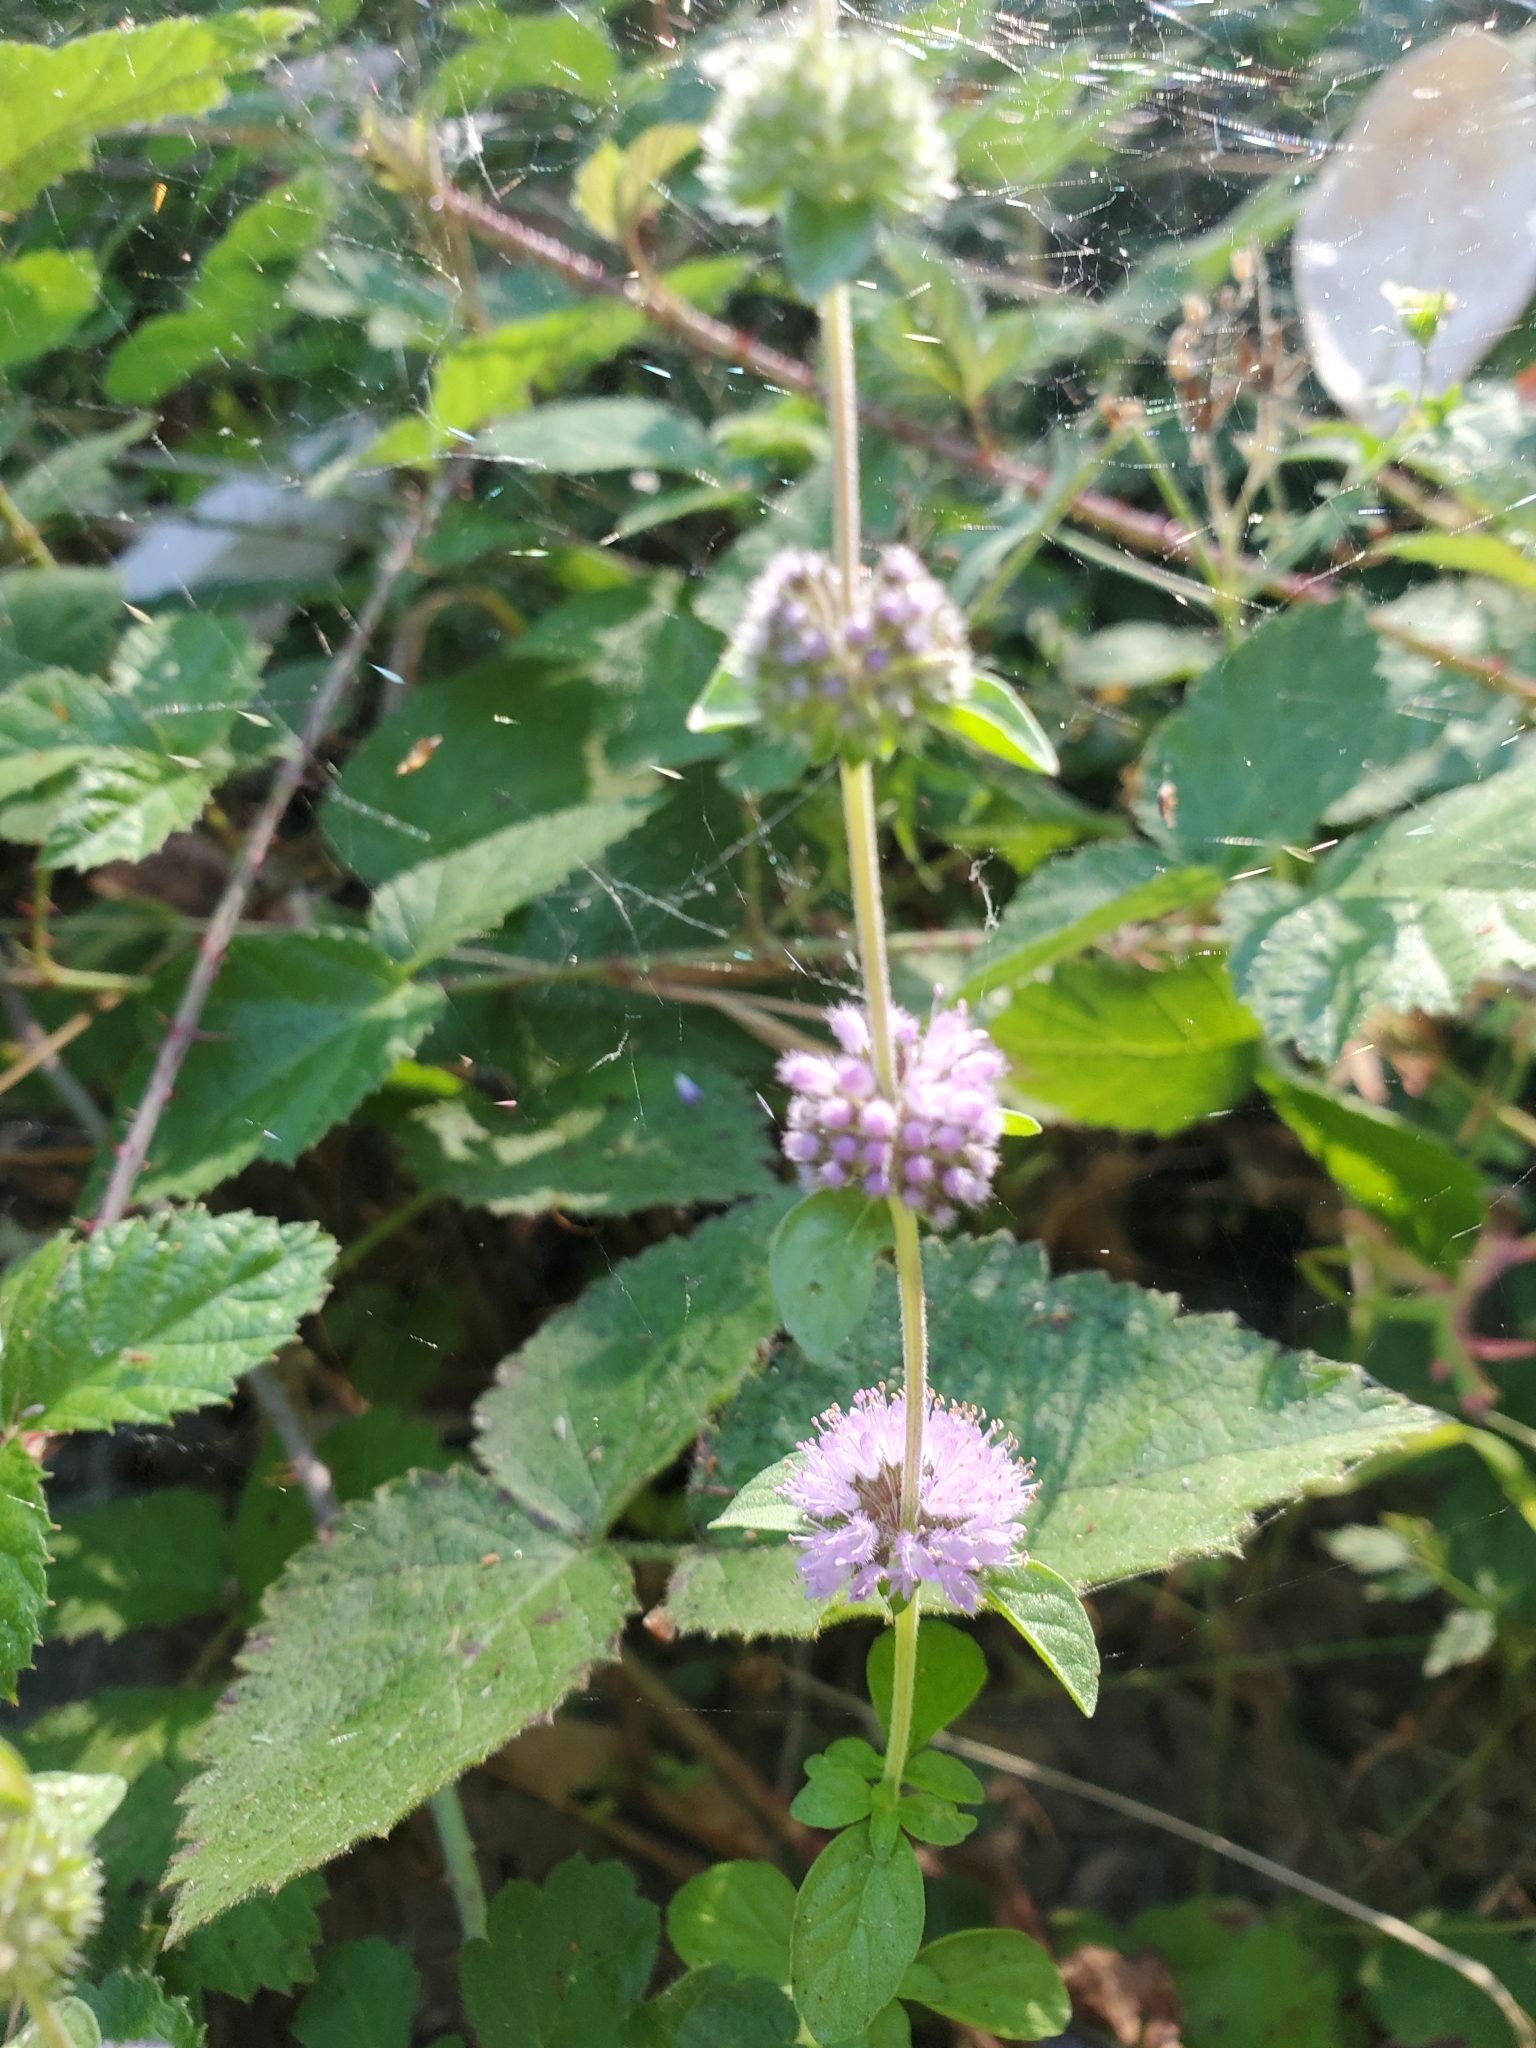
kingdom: Plantae
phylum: Tracheophyta
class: Magnoliopsida
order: Lamiales
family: Lamiaceae
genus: Mentha
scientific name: Mentha pulegium
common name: Pennyroyal
